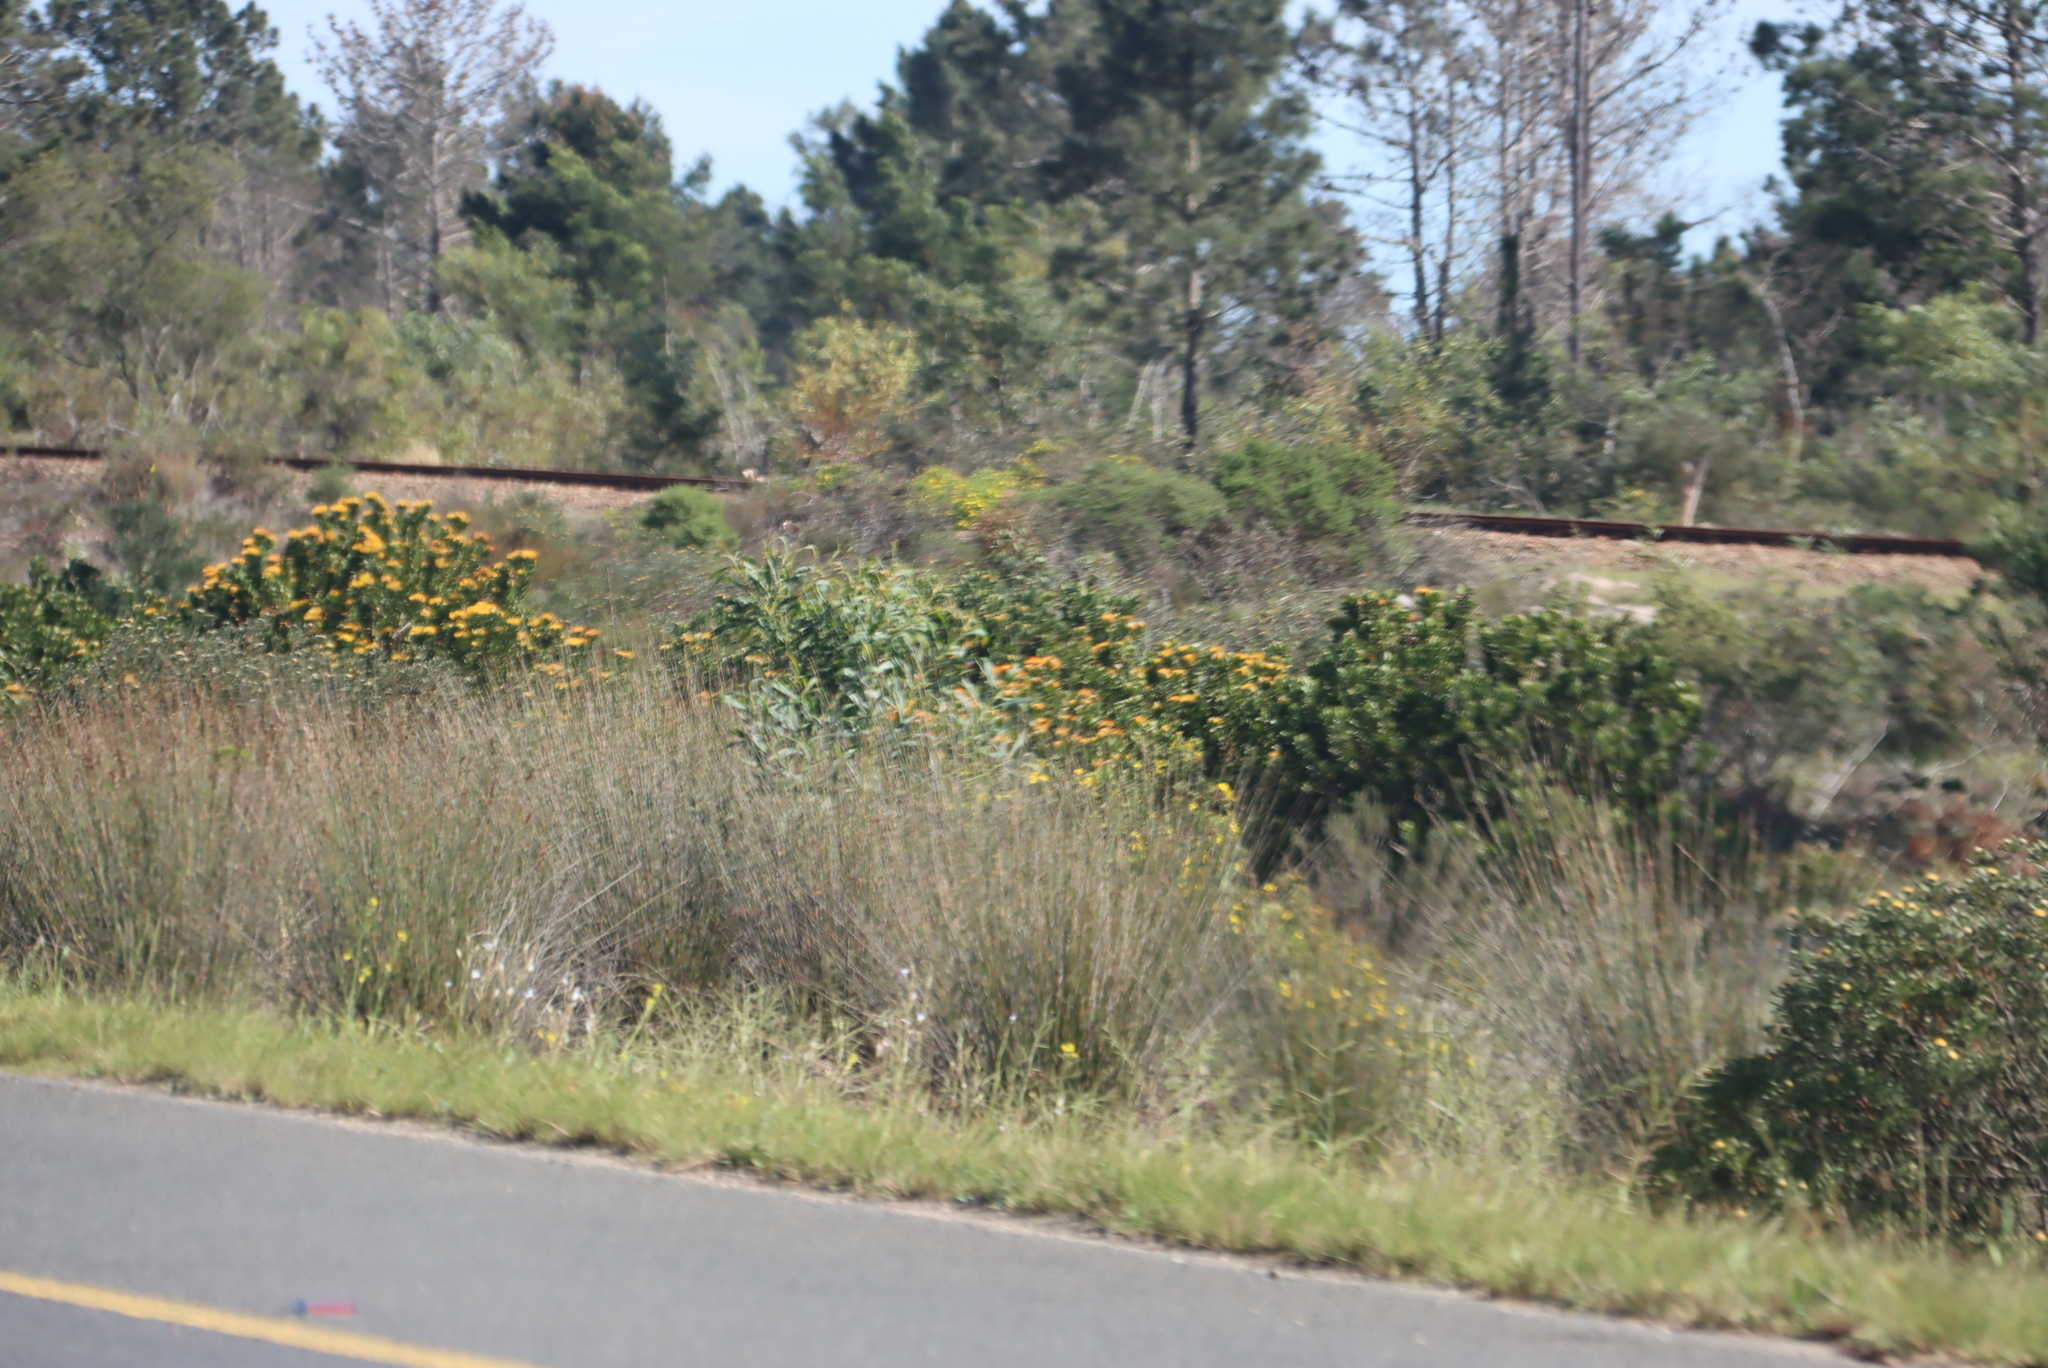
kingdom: Plantae
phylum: Tracheophyta
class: Magnoliopsida
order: Proteales
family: Proteaceae
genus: Leucospermum
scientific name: Leucospermum praecox
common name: Mossel bay pincushion
